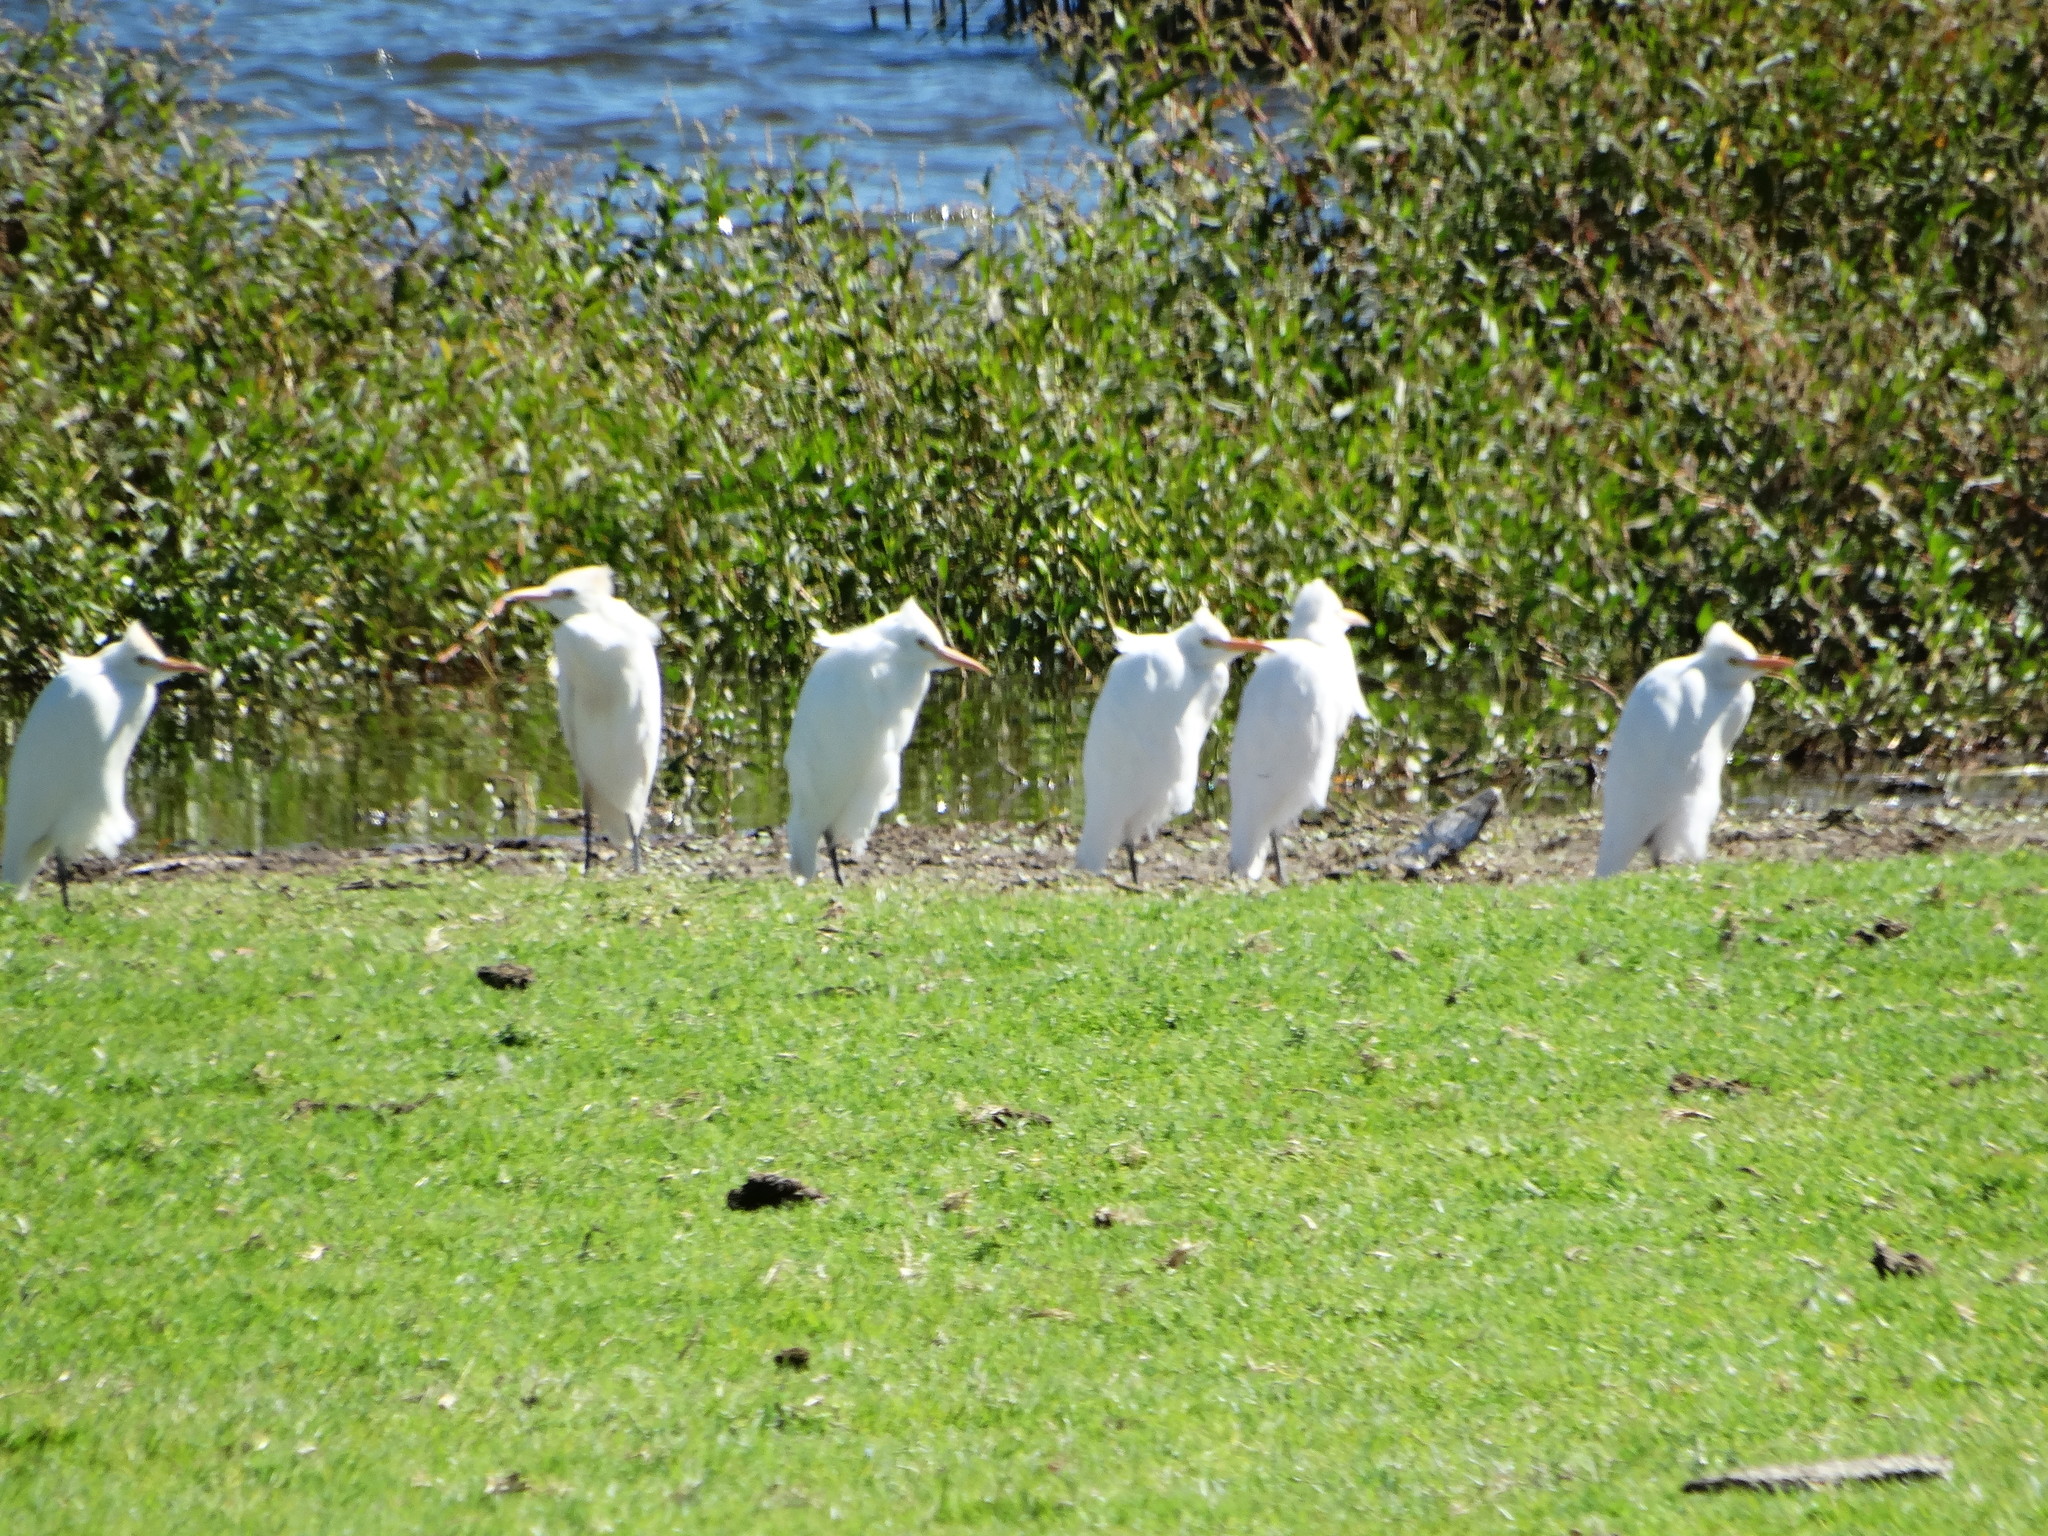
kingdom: Animalia
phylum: Chordata
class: Aves
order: Pelecaniformes
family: Ardeidae
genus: Bubulcus
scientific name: Bubulcus ibis
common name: Cattle egret
